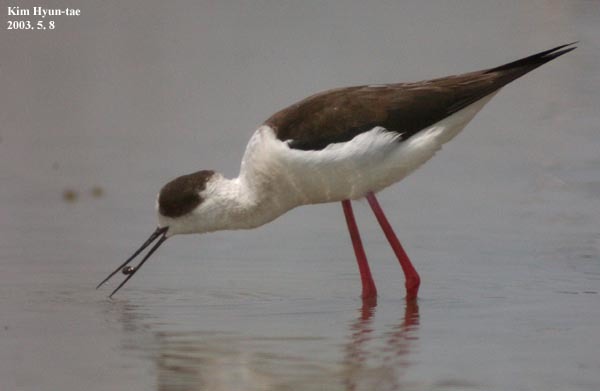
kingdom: Animalia
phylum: Chordata
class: Aves
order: Charadriiformes
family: Recurvirostridae
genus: Himantopus
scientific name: Himantopus himantopus
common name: Black-winged stilt
